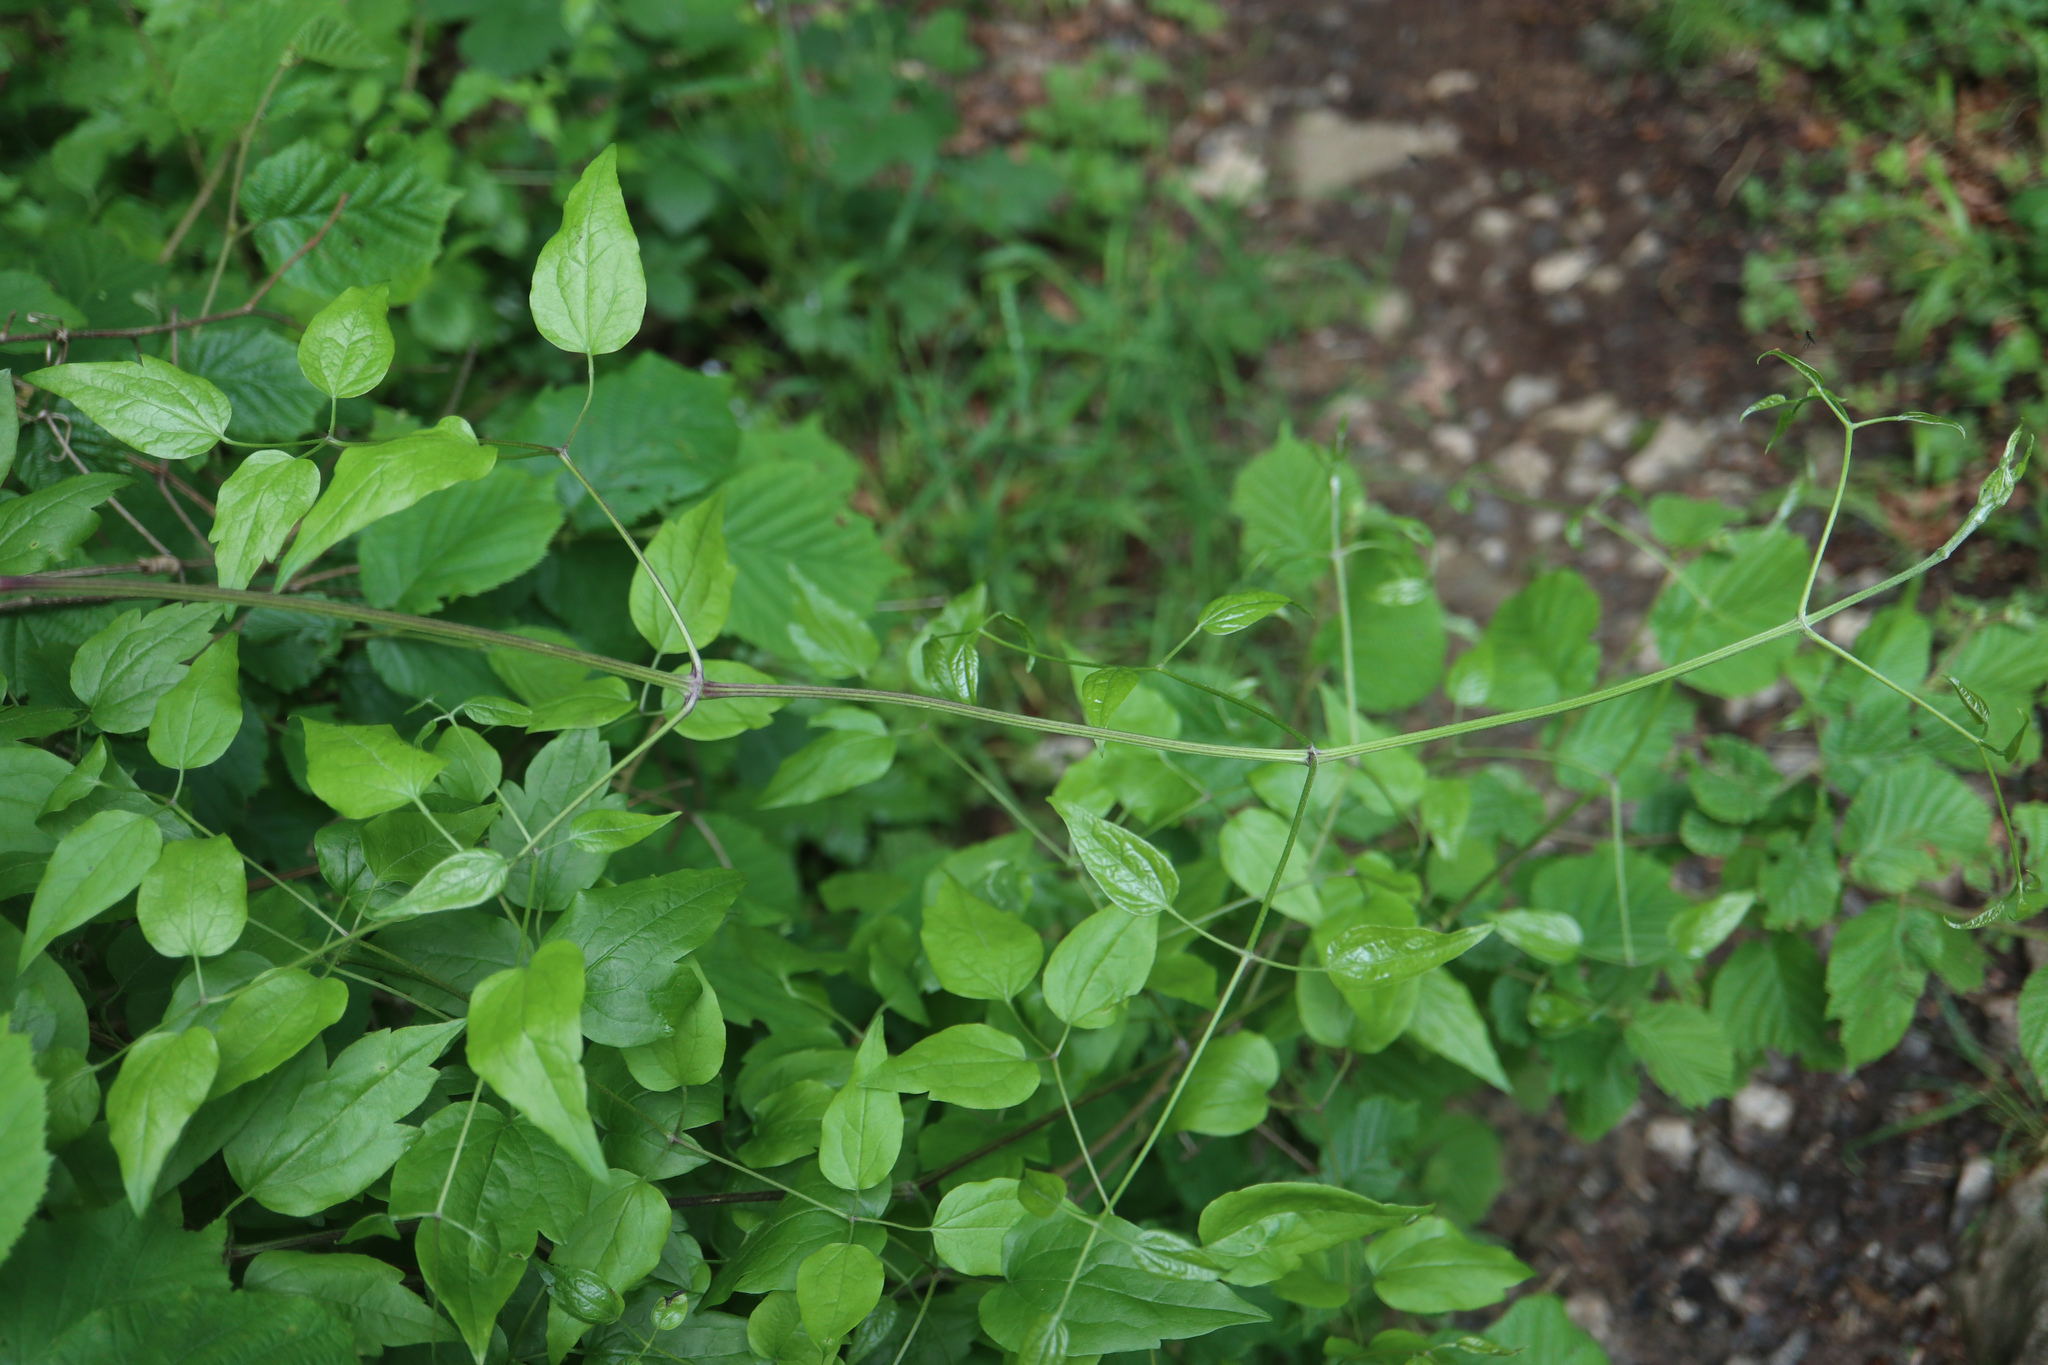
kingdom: Plantae
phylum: Tracheophyta
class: Magnoliopsida
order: Ranunculales
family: Ranunculaceae
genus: Clematis
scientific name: Clematis vitalba
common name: Evergreen clematis
